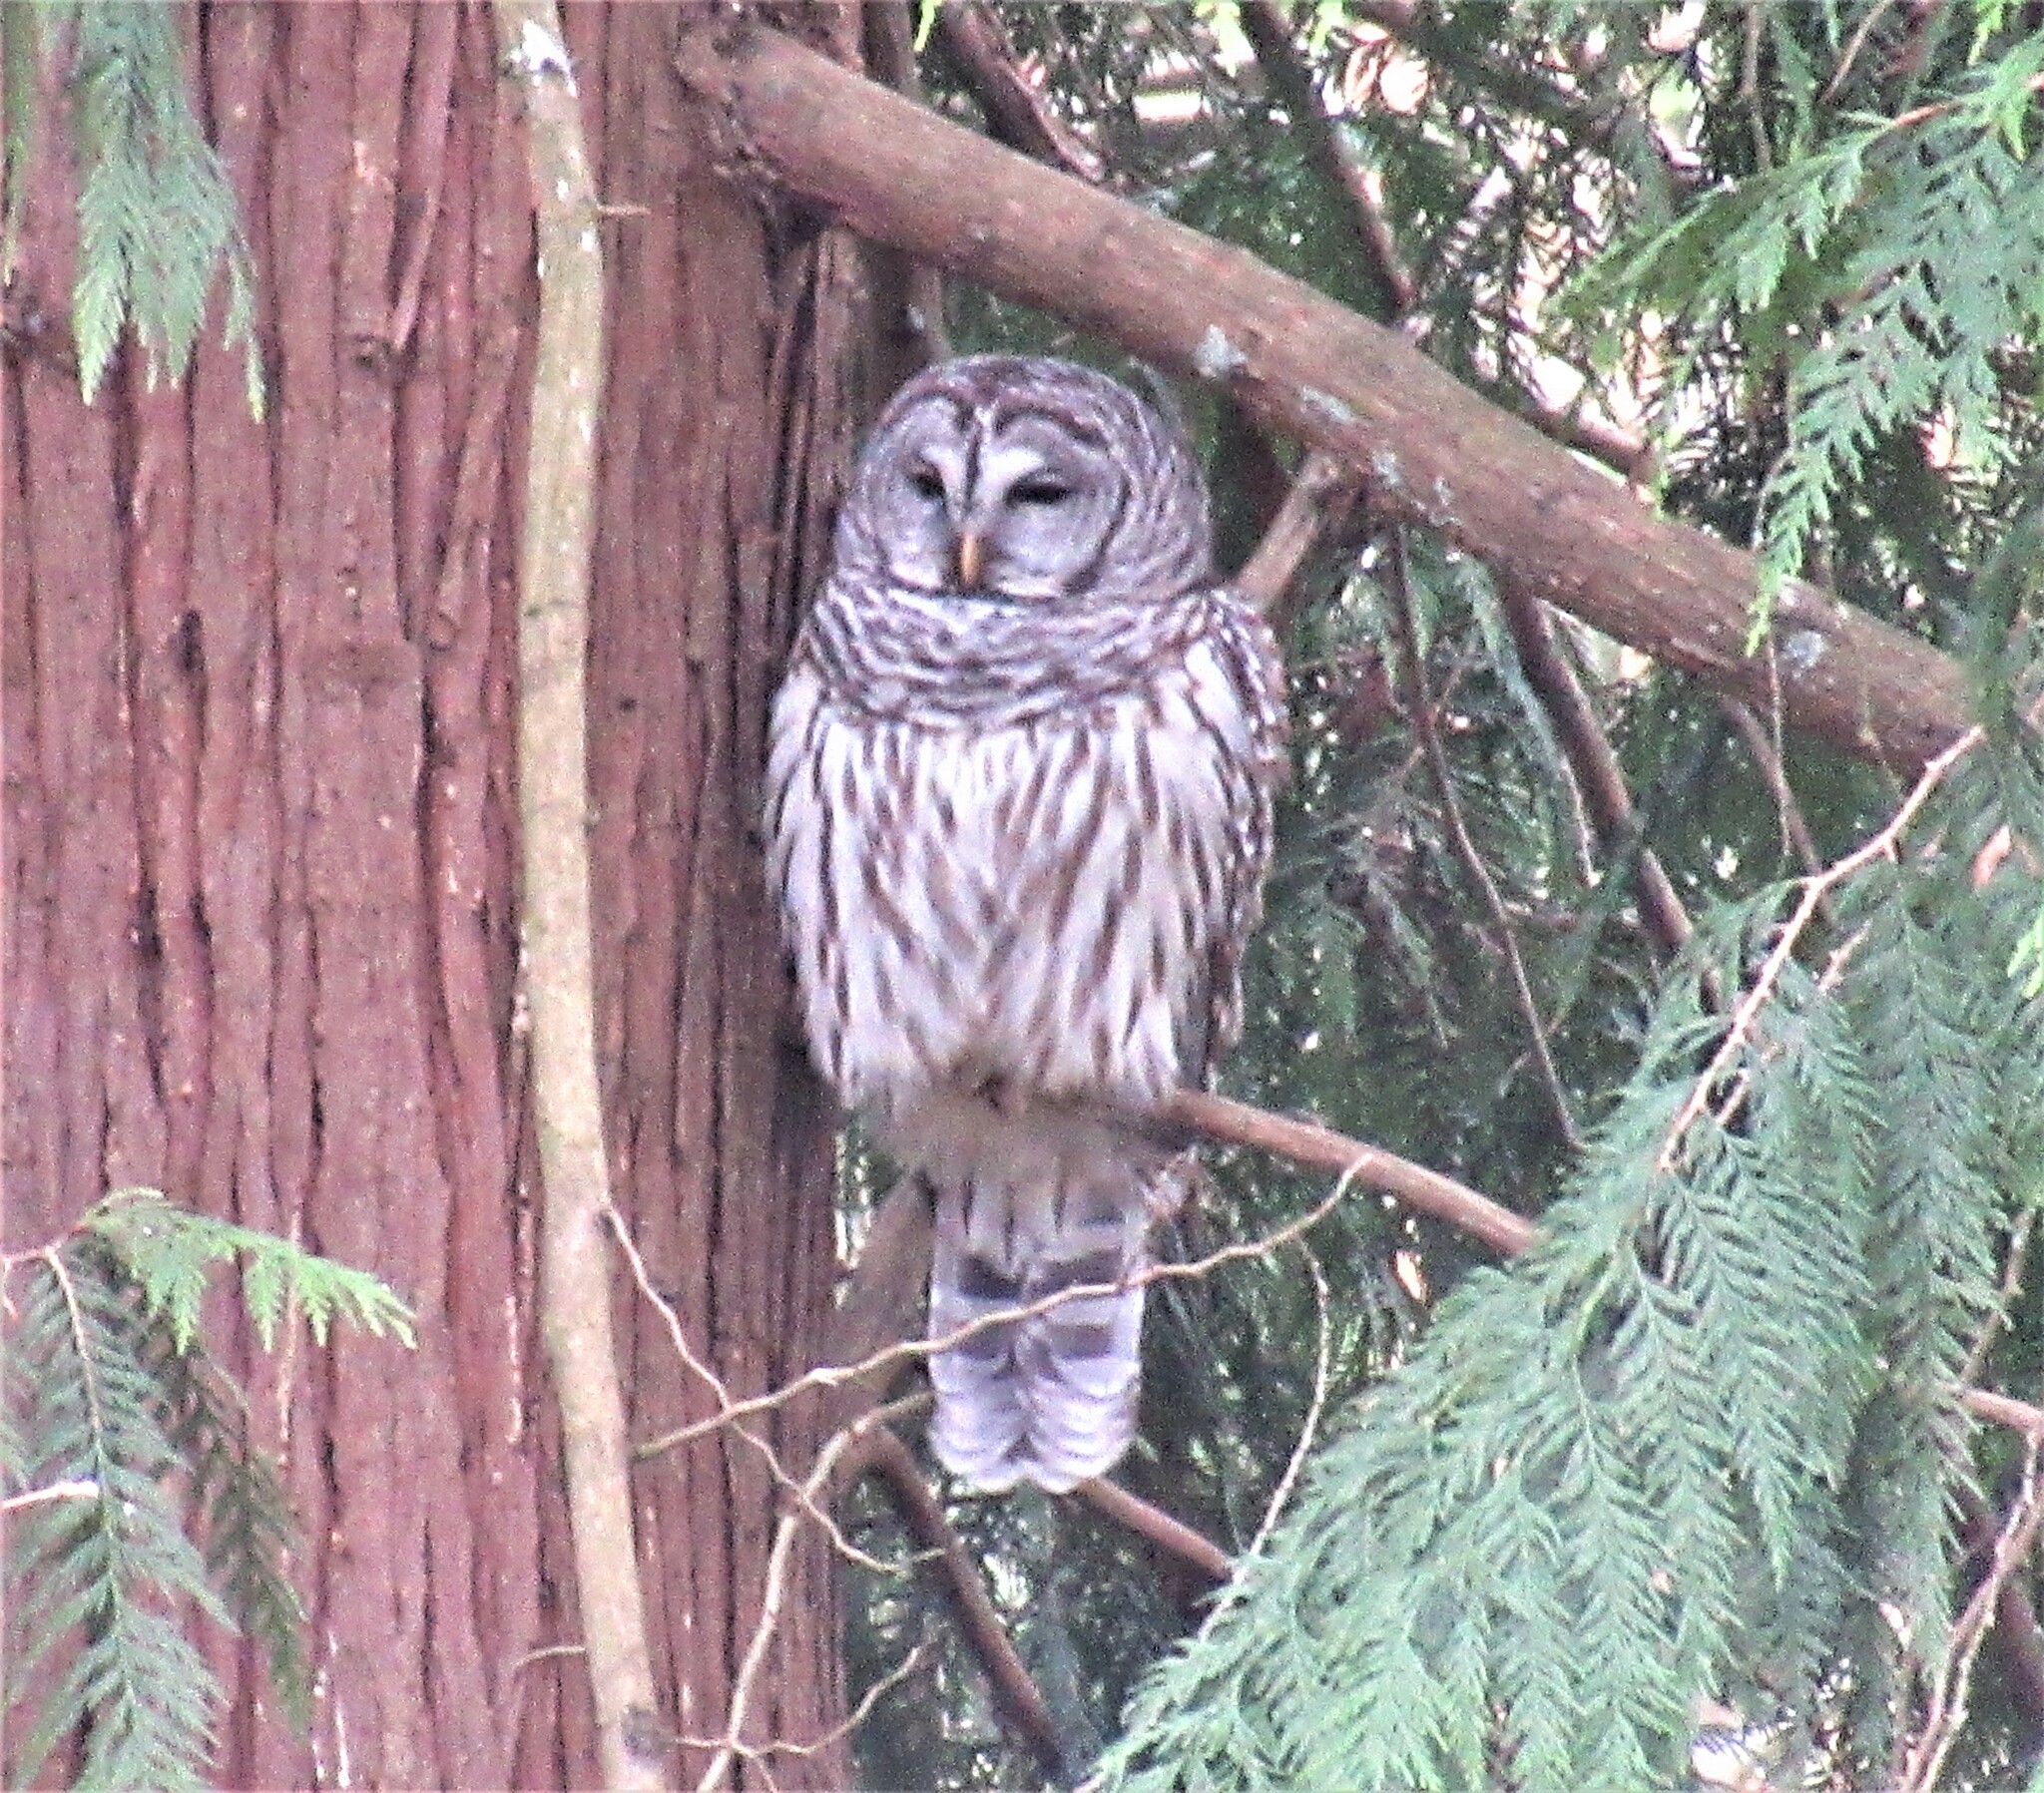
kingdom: Animalia
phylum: Chordata
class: Aves
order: Strigiformes
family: Strigidae
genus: Strix
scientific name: Strix varia
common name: Barred owl
